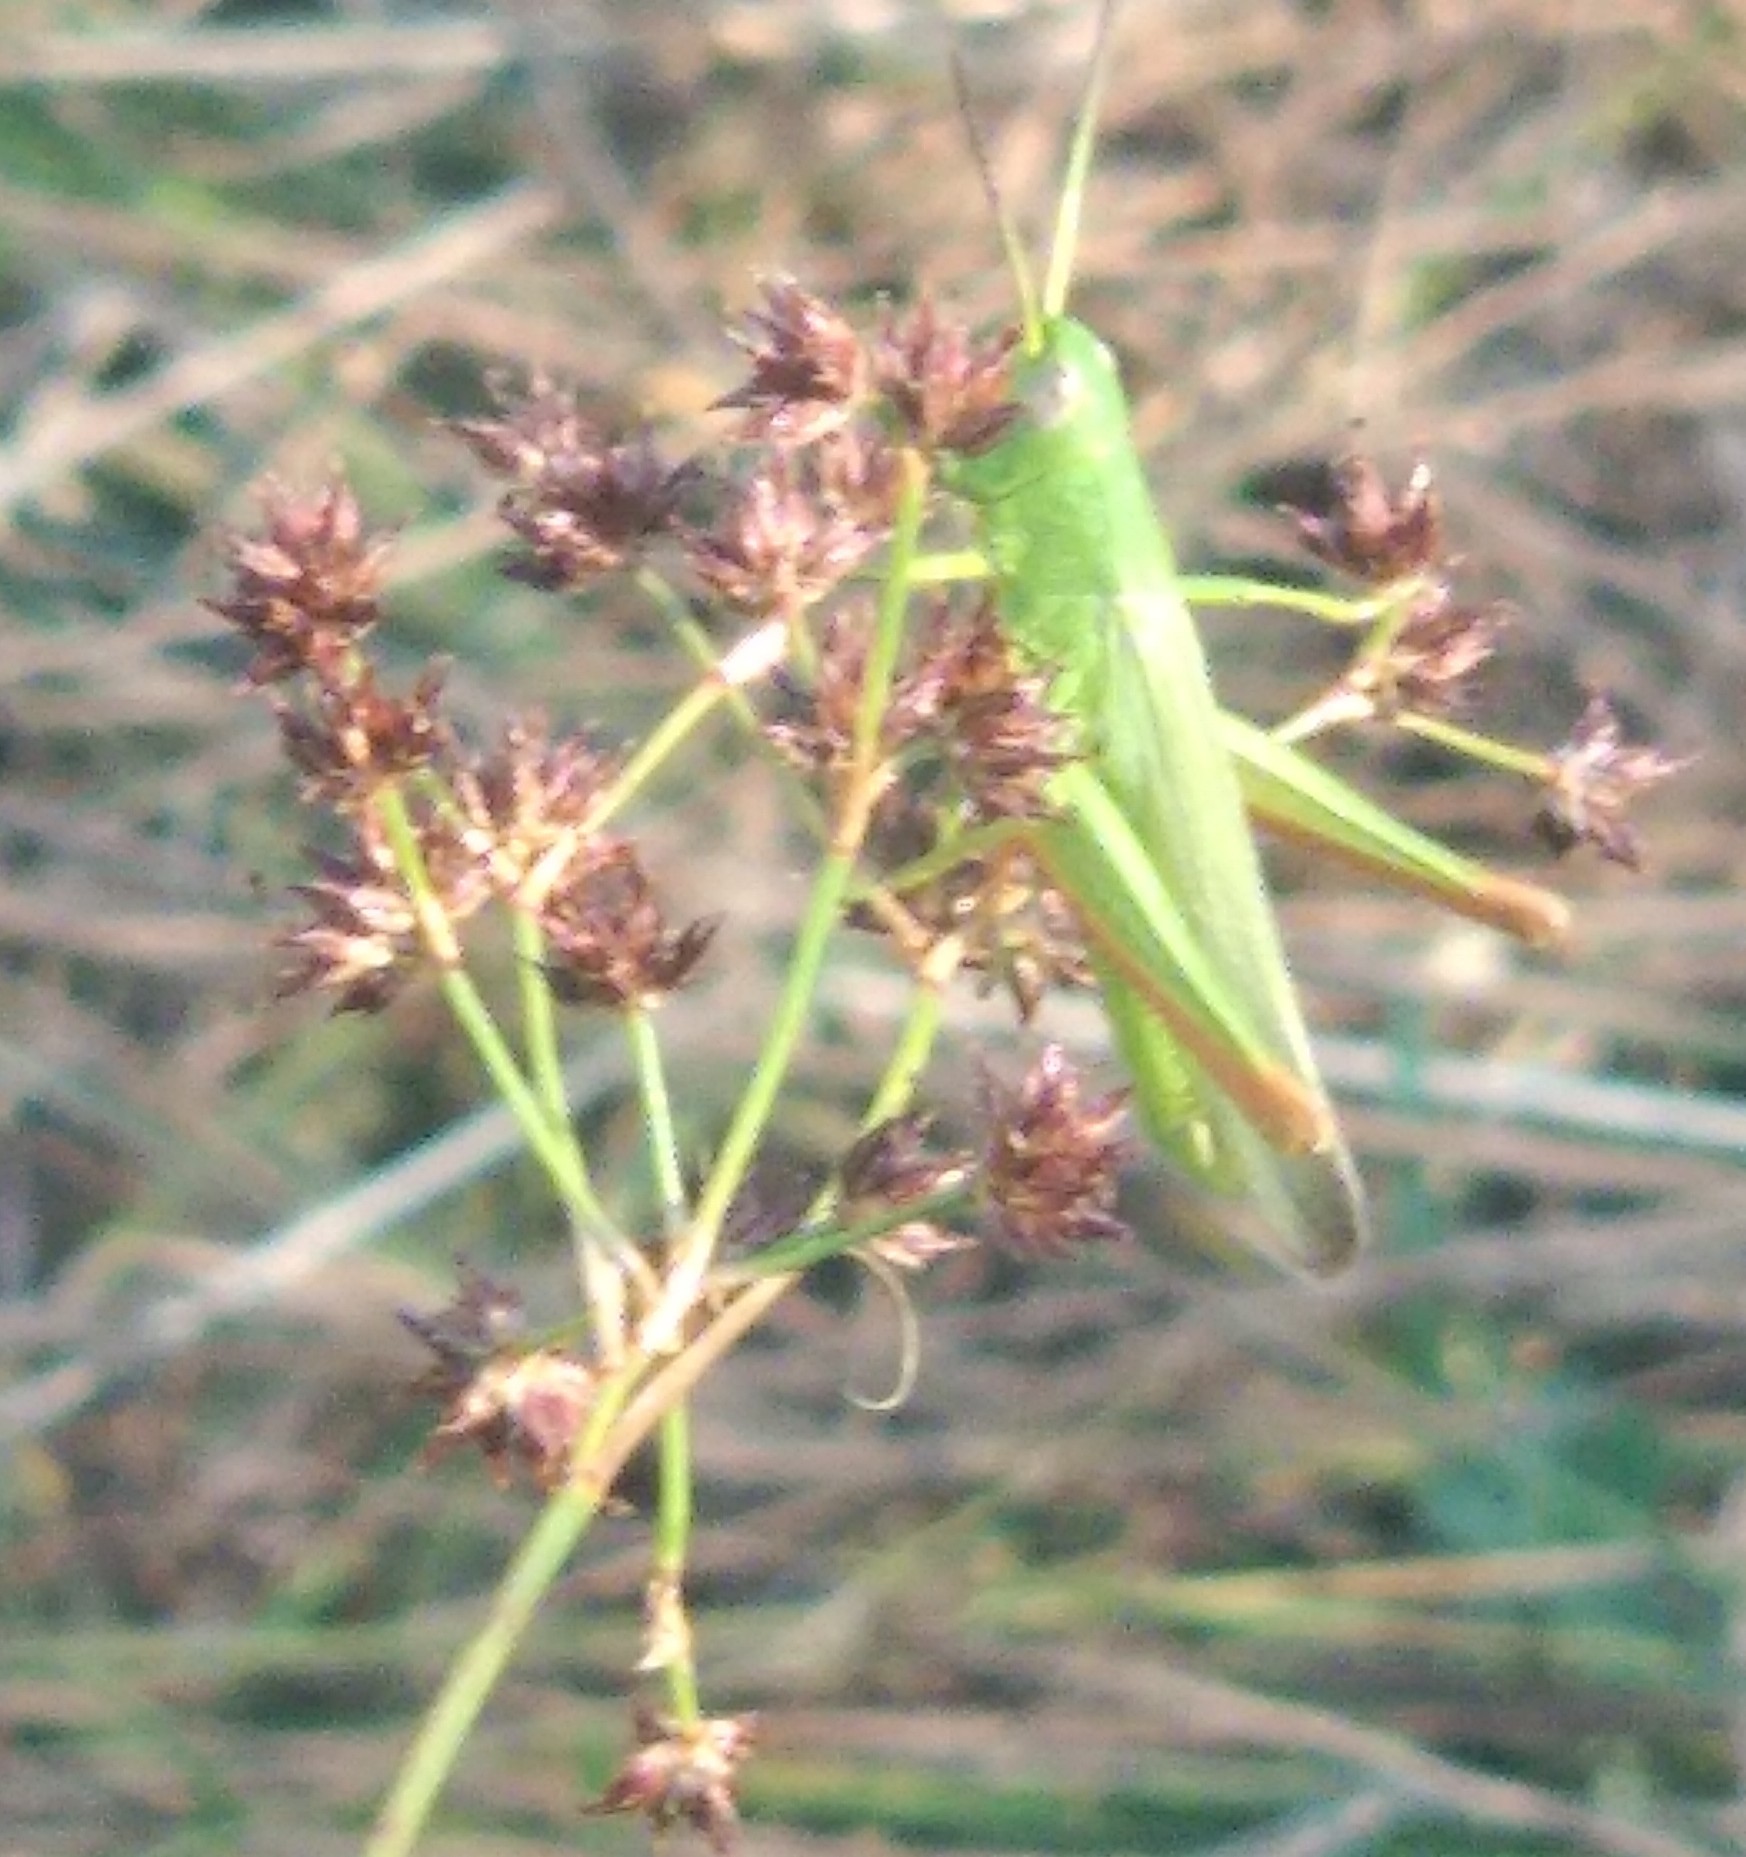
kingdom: Animalia
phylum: Arthropoda
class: Insecta
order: Orthoptera
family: Acrididae
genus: Chorthippus
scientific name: Chorthippus jucundus
